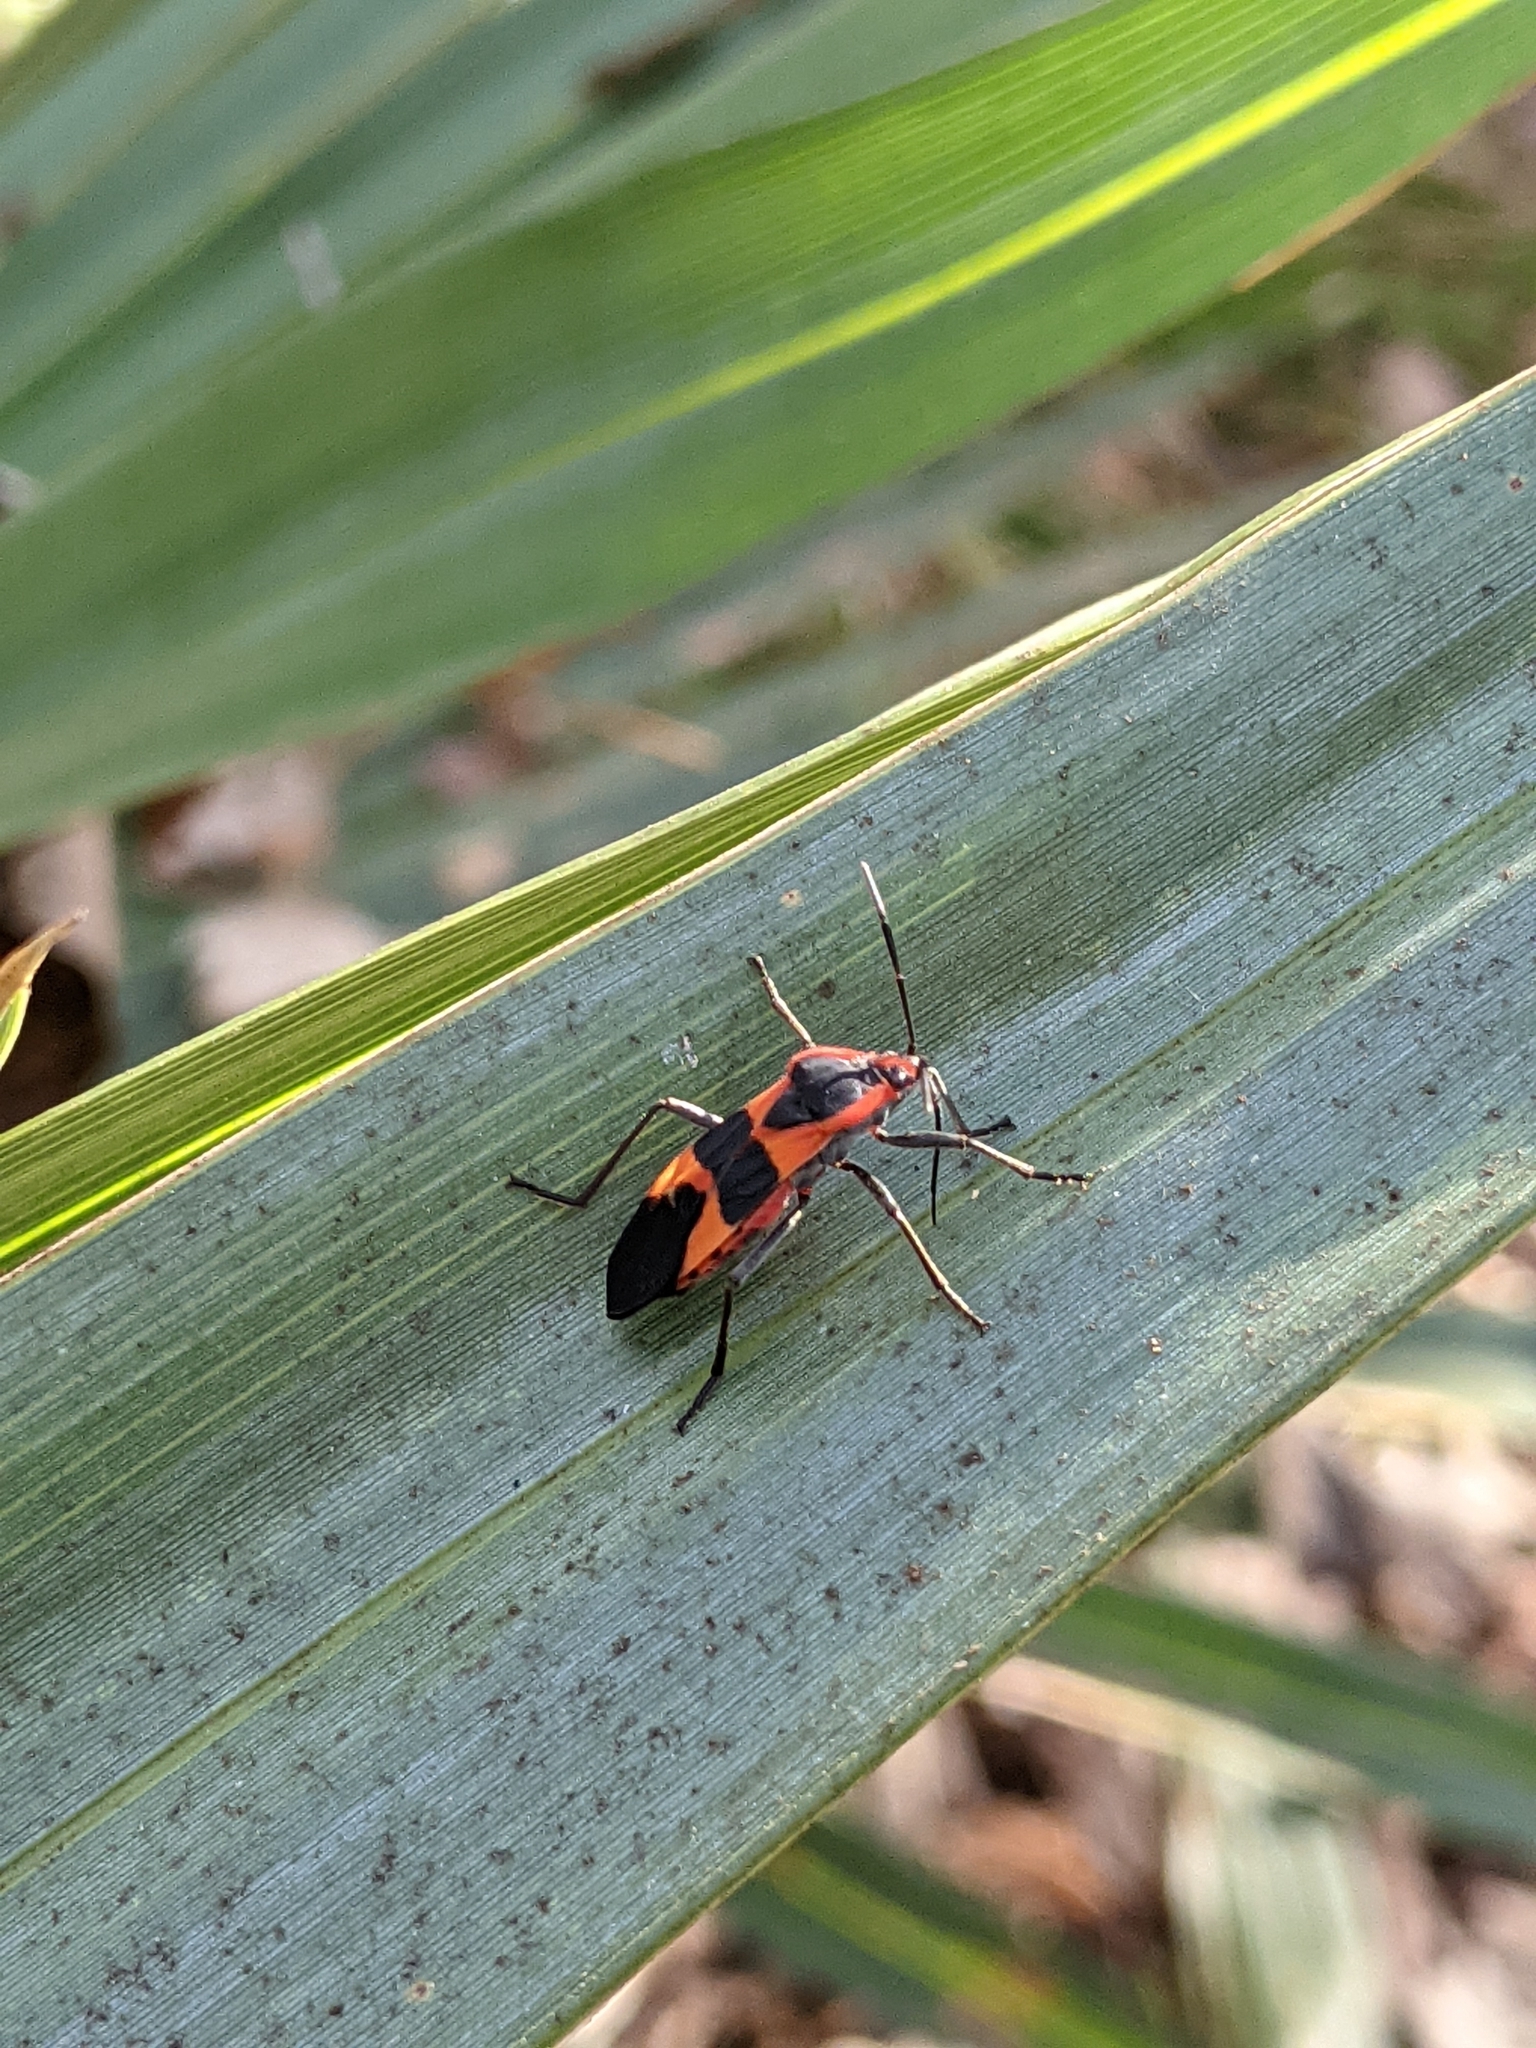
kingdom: Animalia
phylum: Arthropoda
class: Insecta
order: Hemiptera
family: Lygaeidae
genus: Oncopeltus
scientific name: Oncopeltus fasciatus
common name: Large milkweed bug
